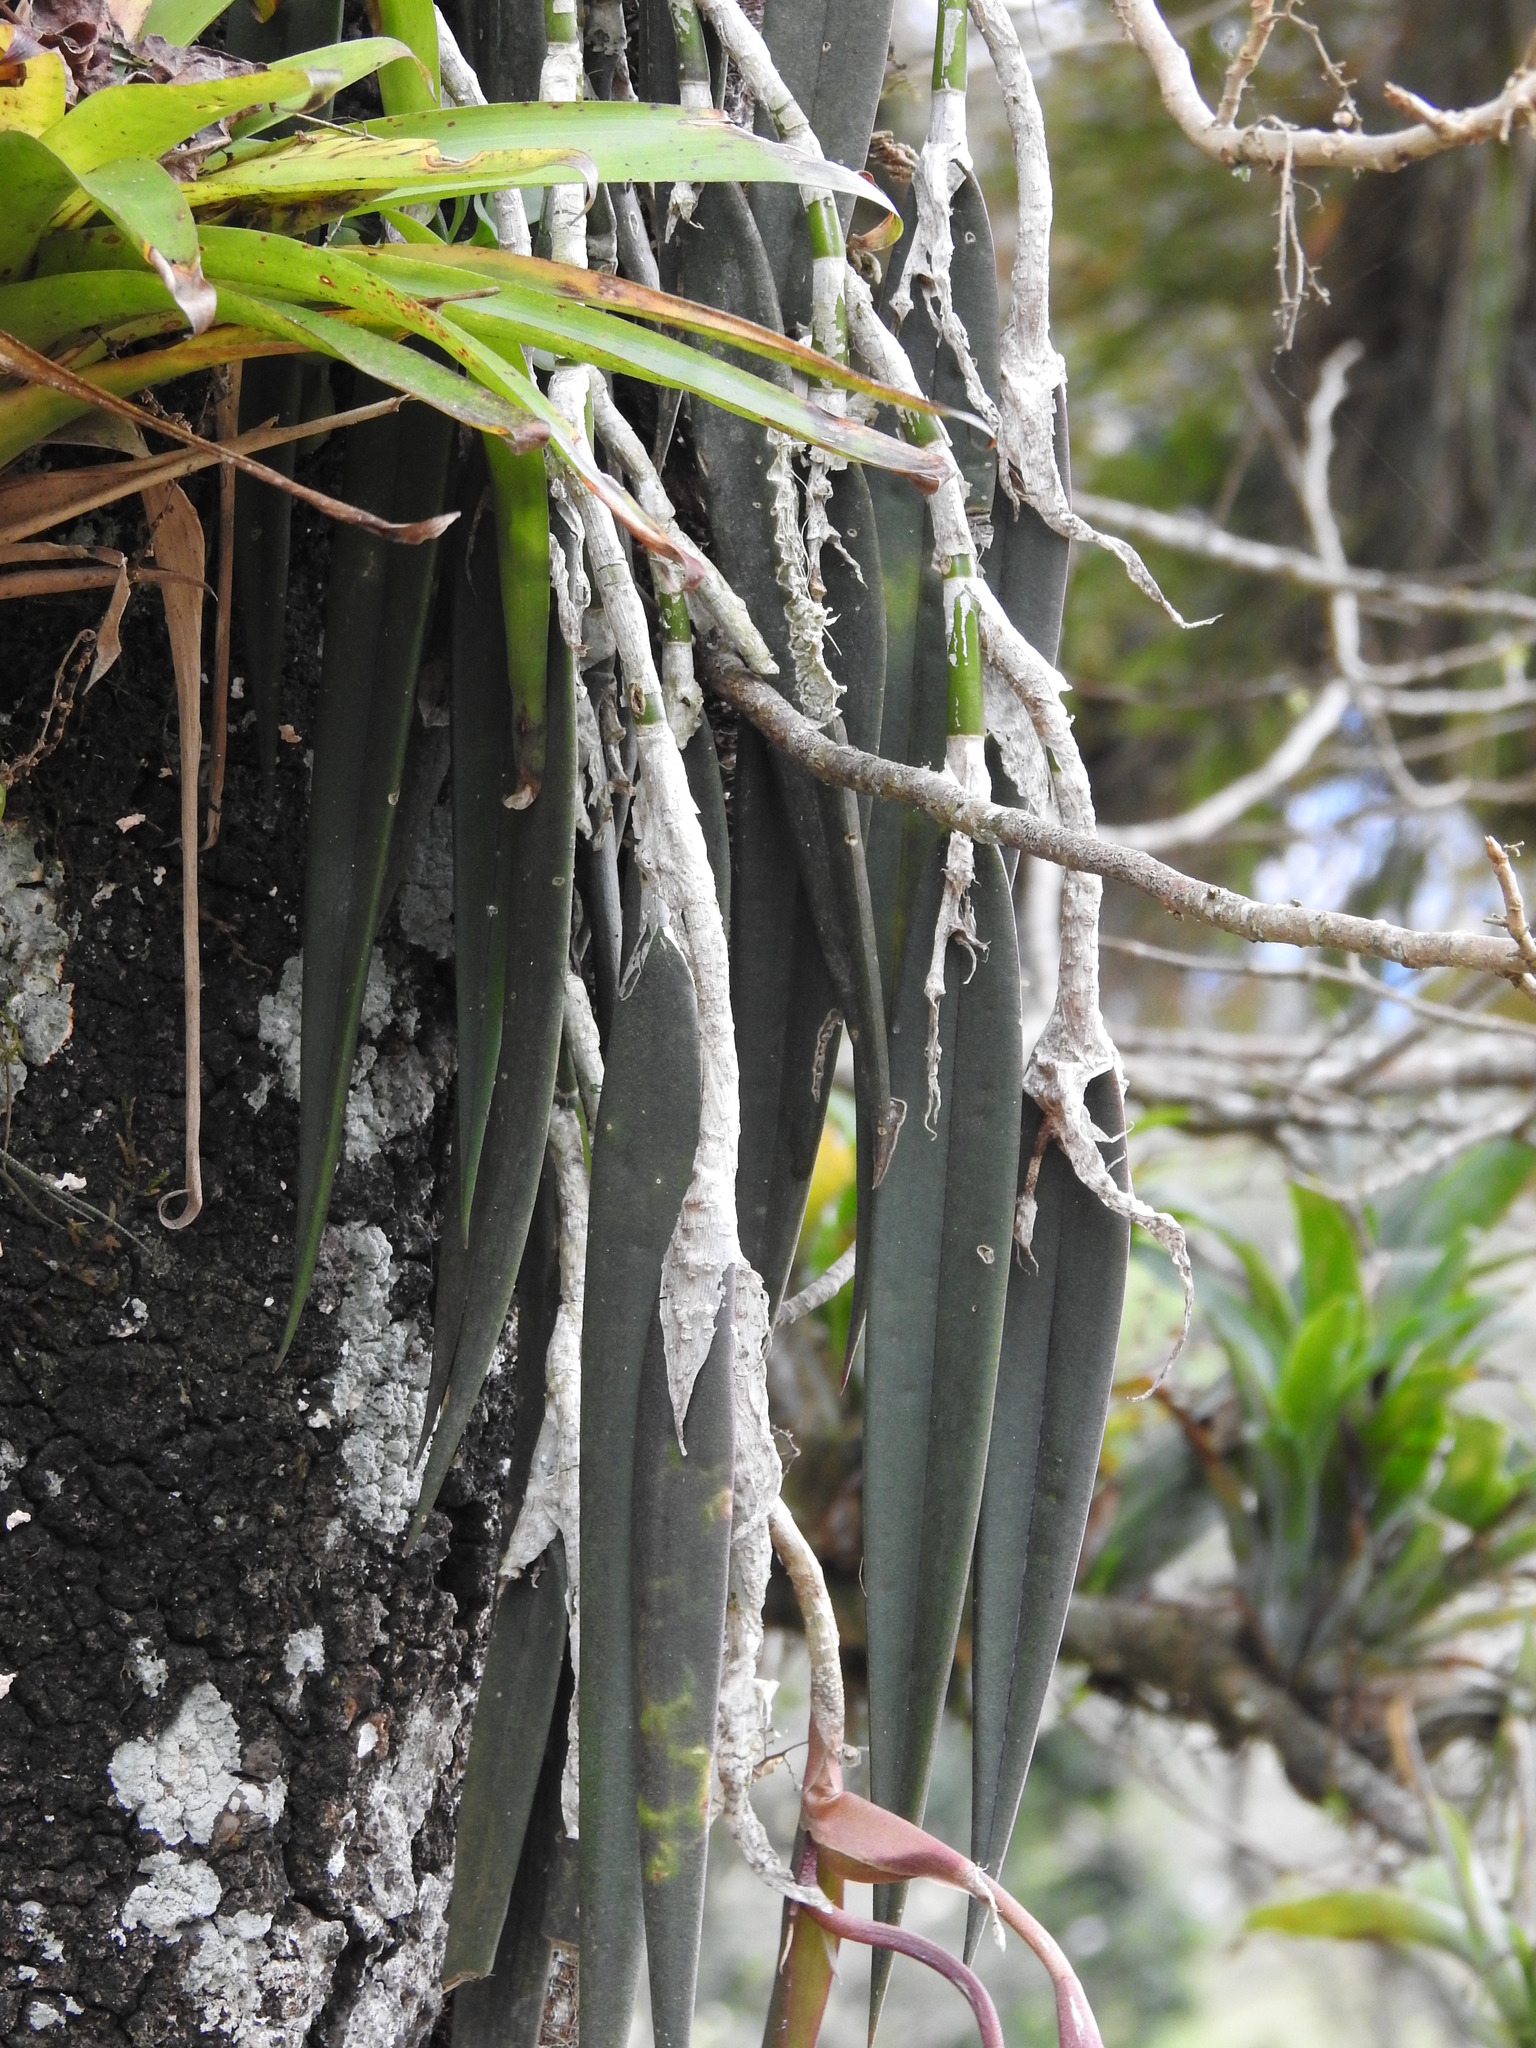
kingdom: Plantae
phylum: Tracheophyta
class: Liliopsida
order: Asparagales
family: Orchidaceae
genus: Epidendrum
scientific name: Epidendrum parkinsonianum
